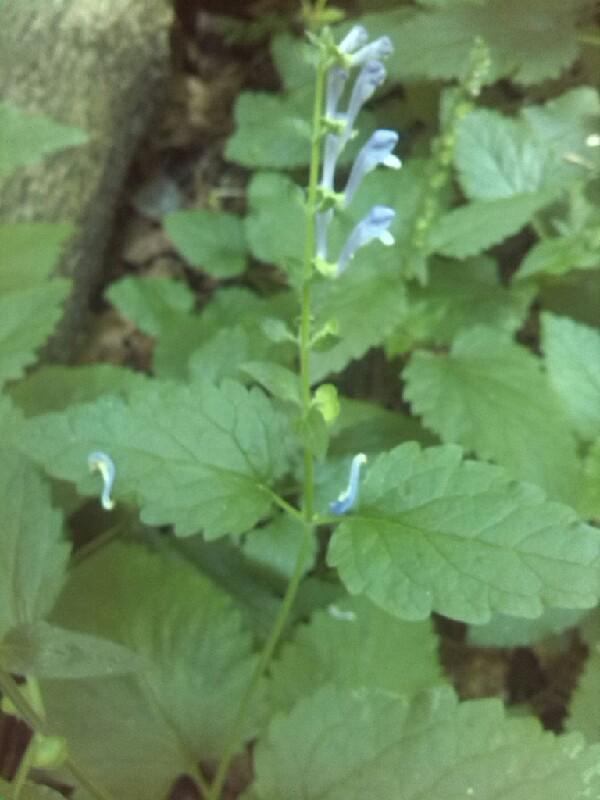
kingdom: Plantae
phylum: Tracheophyta
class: Magnoliopsida
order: Lamiales
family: Lamiaceae
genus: Scutellaria
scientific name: Scutellaria altissima
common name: Somerset skullcap
